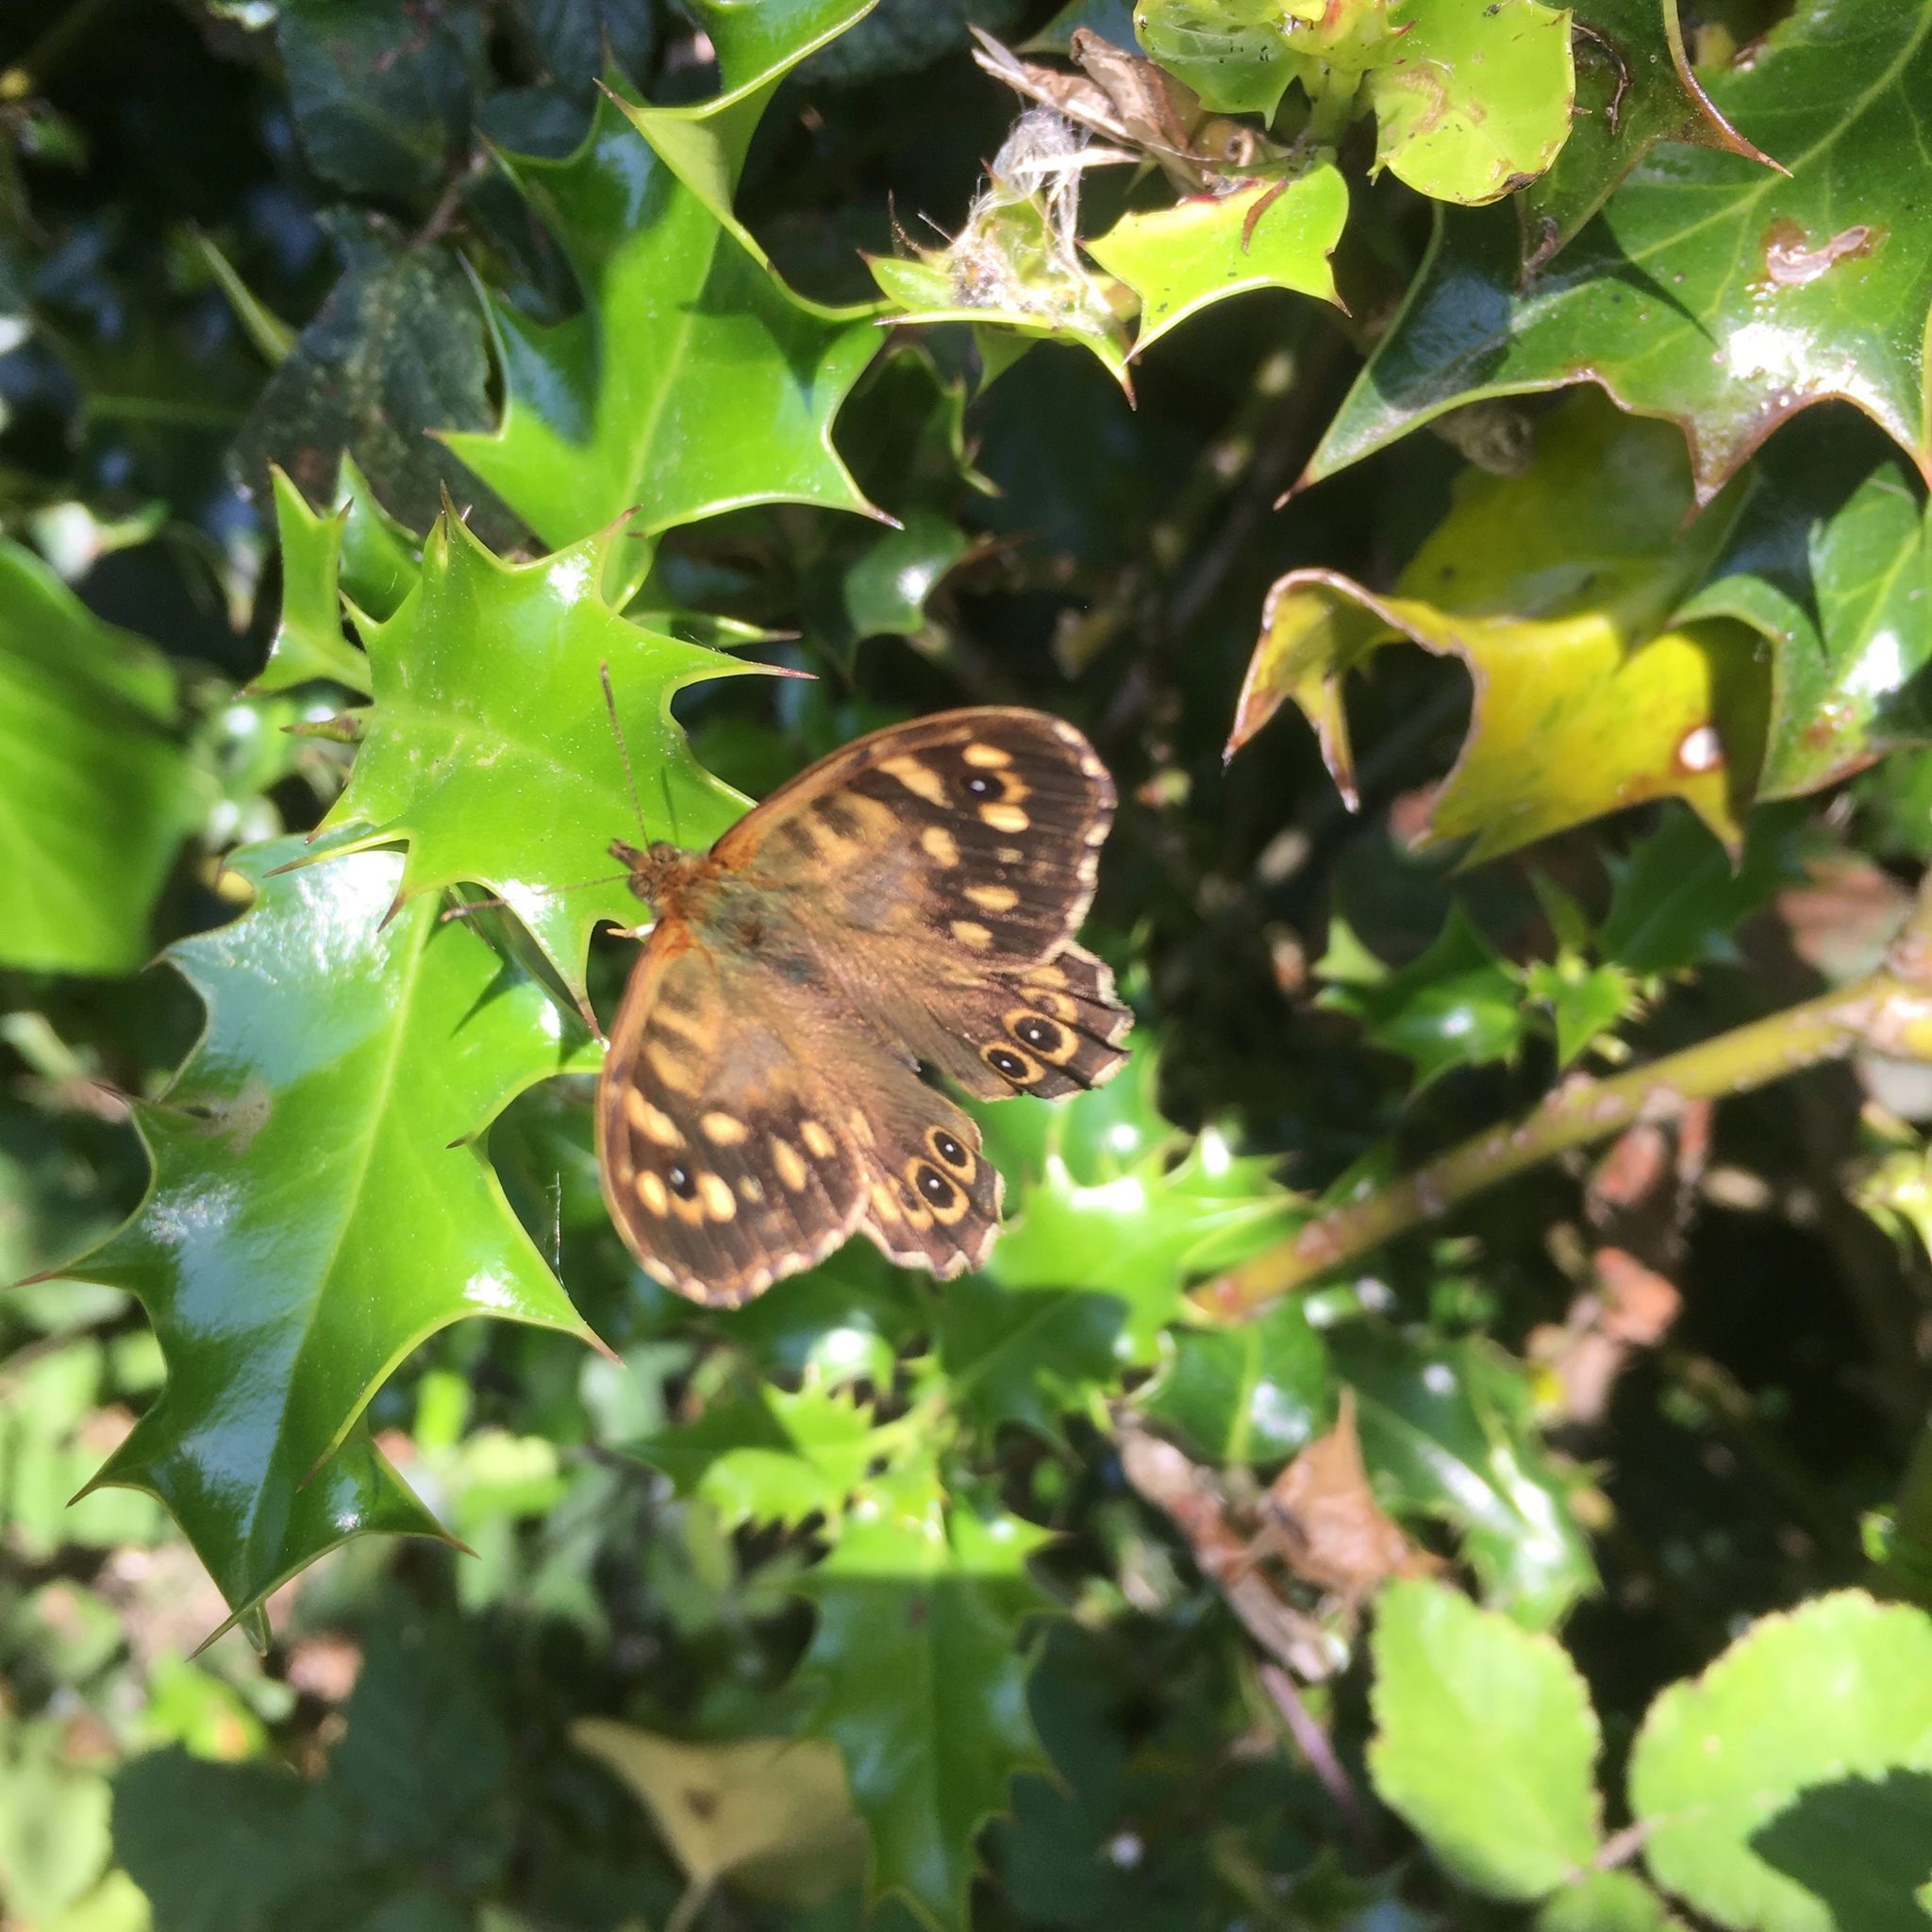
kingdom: Animalia
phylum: Arthropoda
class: Insecta
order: Lepidoptera
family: Nymphalidae
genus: Pararge
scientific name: Pararge aegeria
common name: Speckled wood
